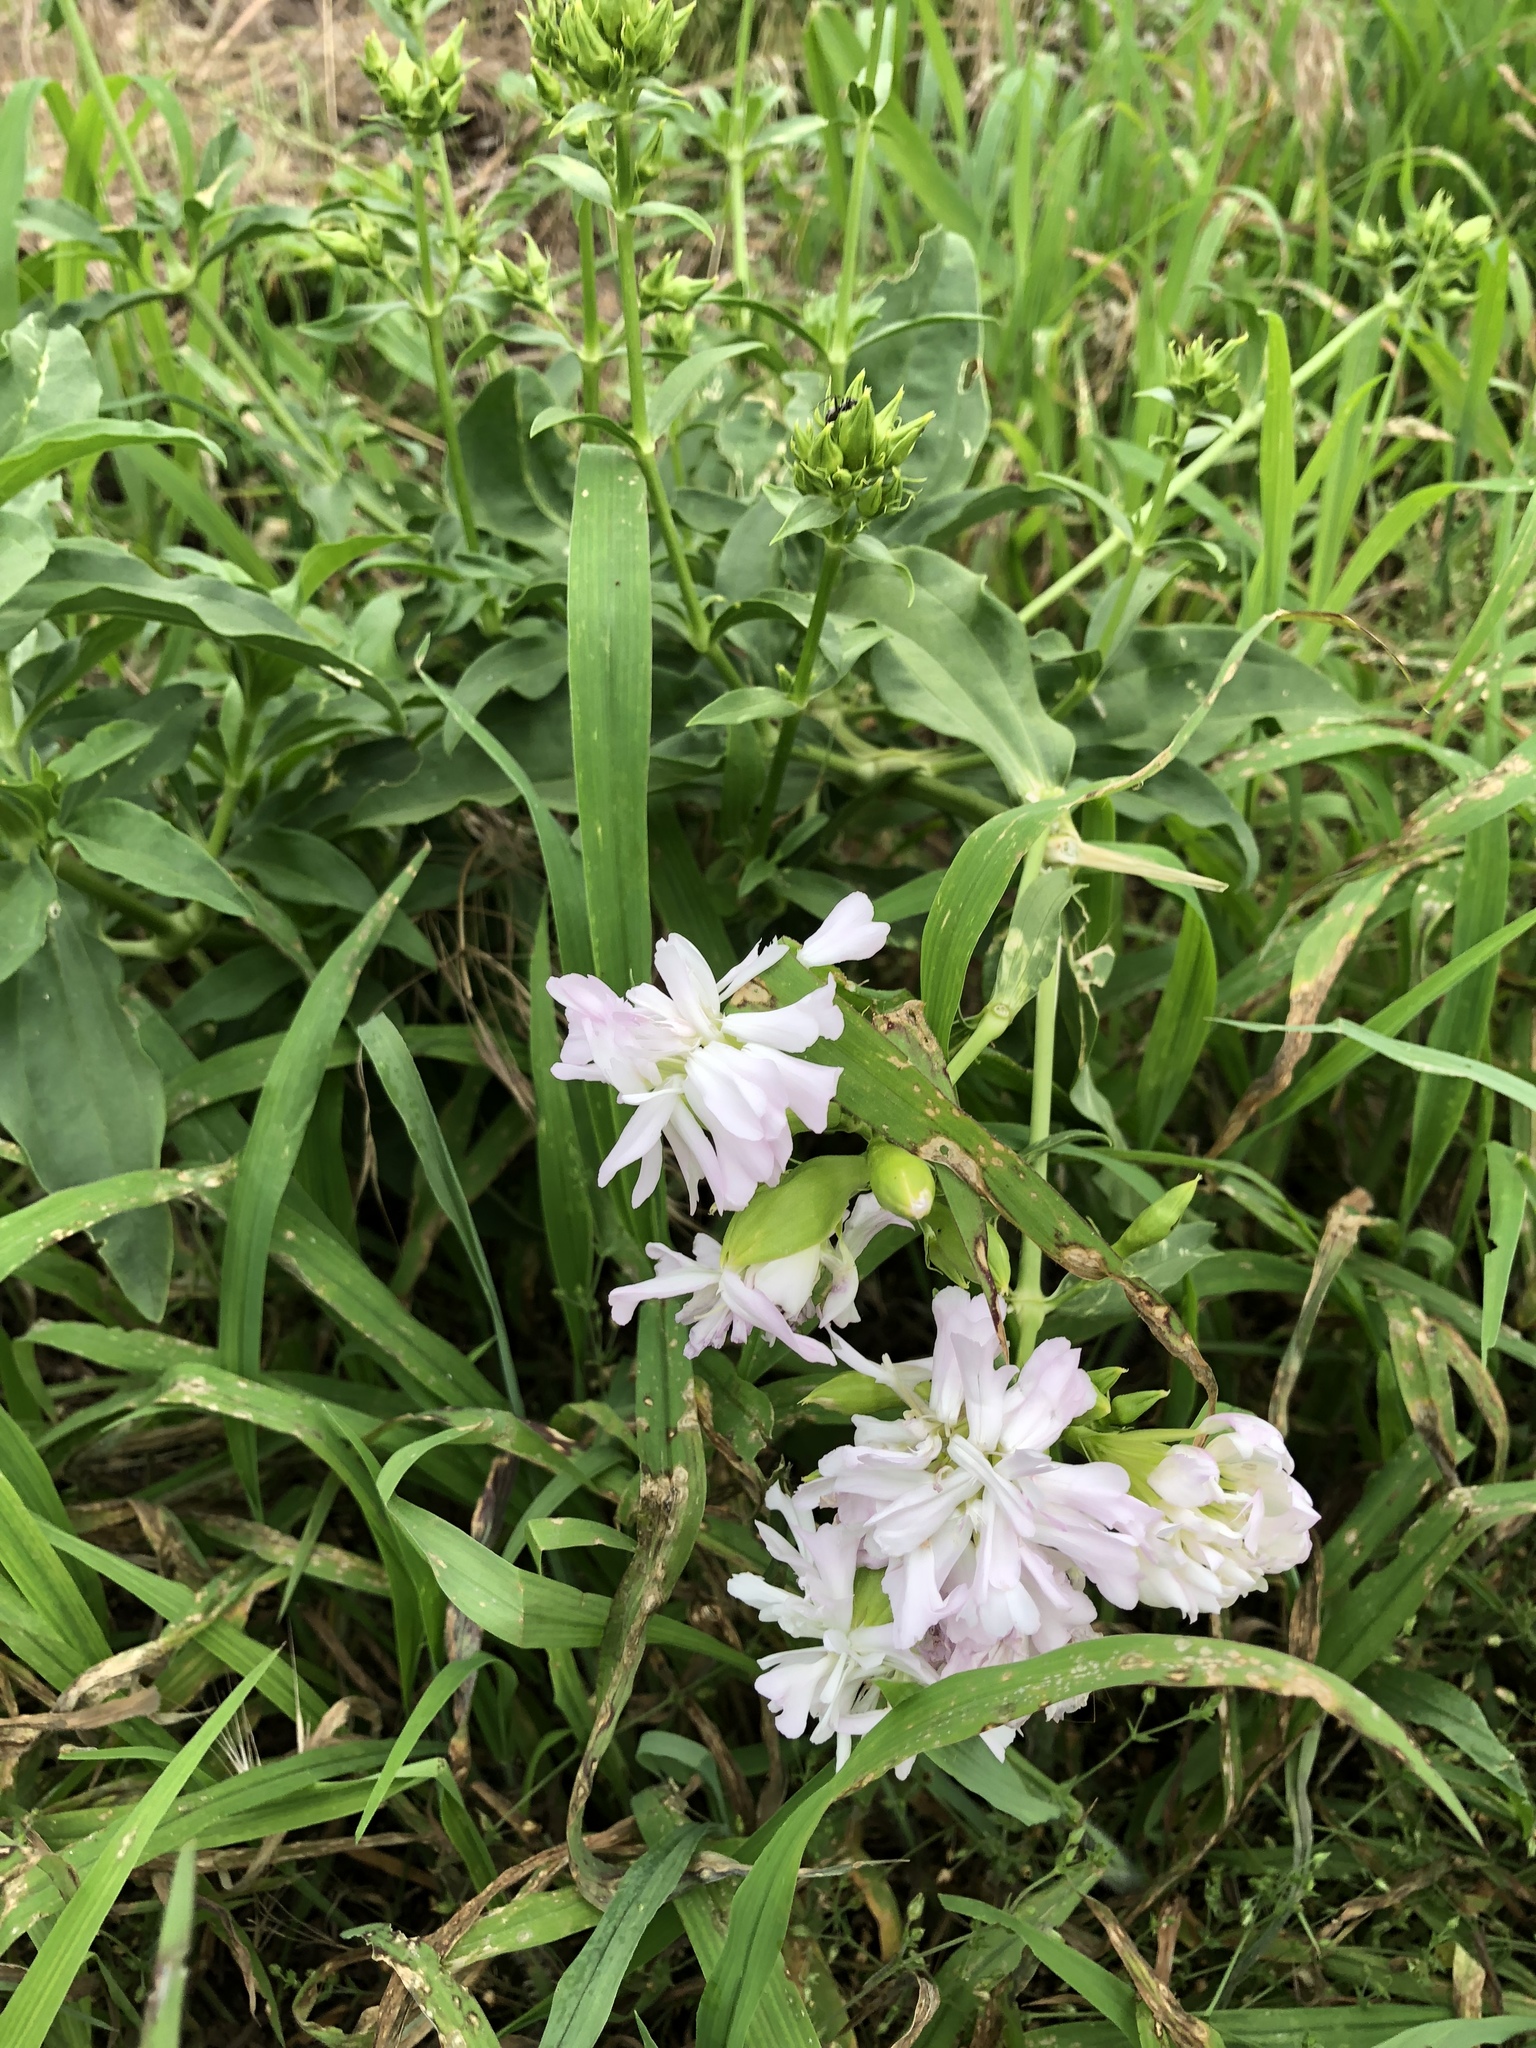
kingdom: Plantae
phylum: Tracheophyta
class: Magnoliopsida
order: Caryophyllales
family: Caryophyllaceae
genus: Saponaria
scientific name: Saponaria officinalis
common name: Soapwort
